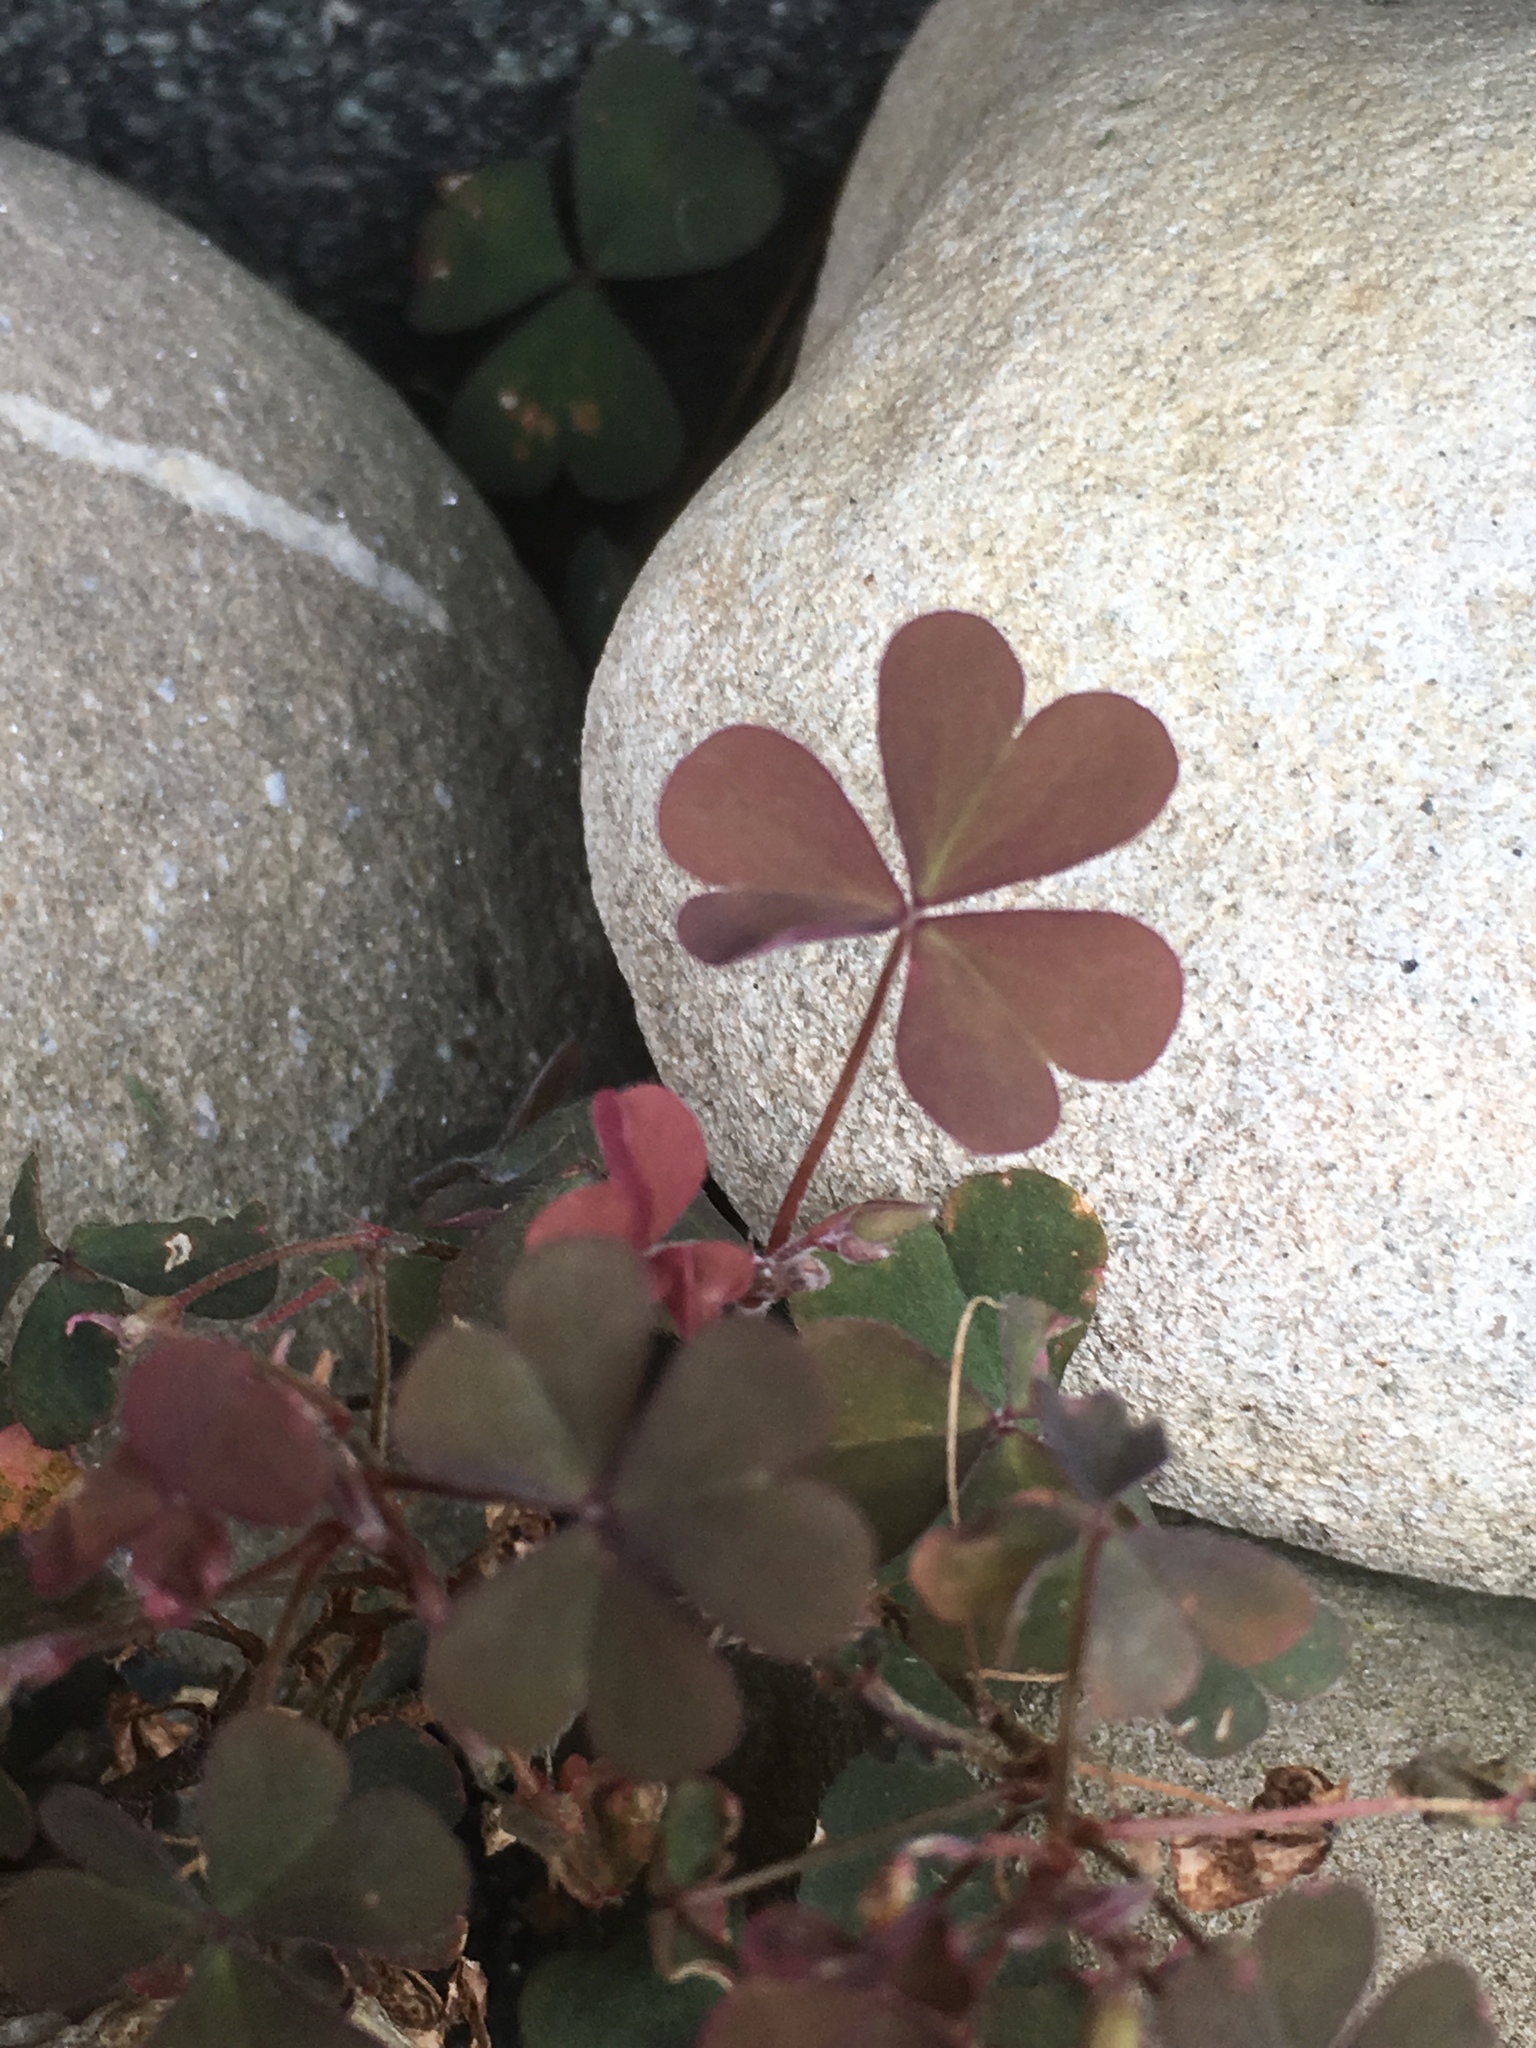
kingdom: Plantae
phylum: Tracheophyta
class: Magnoliopsida
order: Oxalidales
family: Oxalidaceae
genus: Oxalis
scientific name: Oxalis corniculata
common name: Procumbent yellow-sorrel
